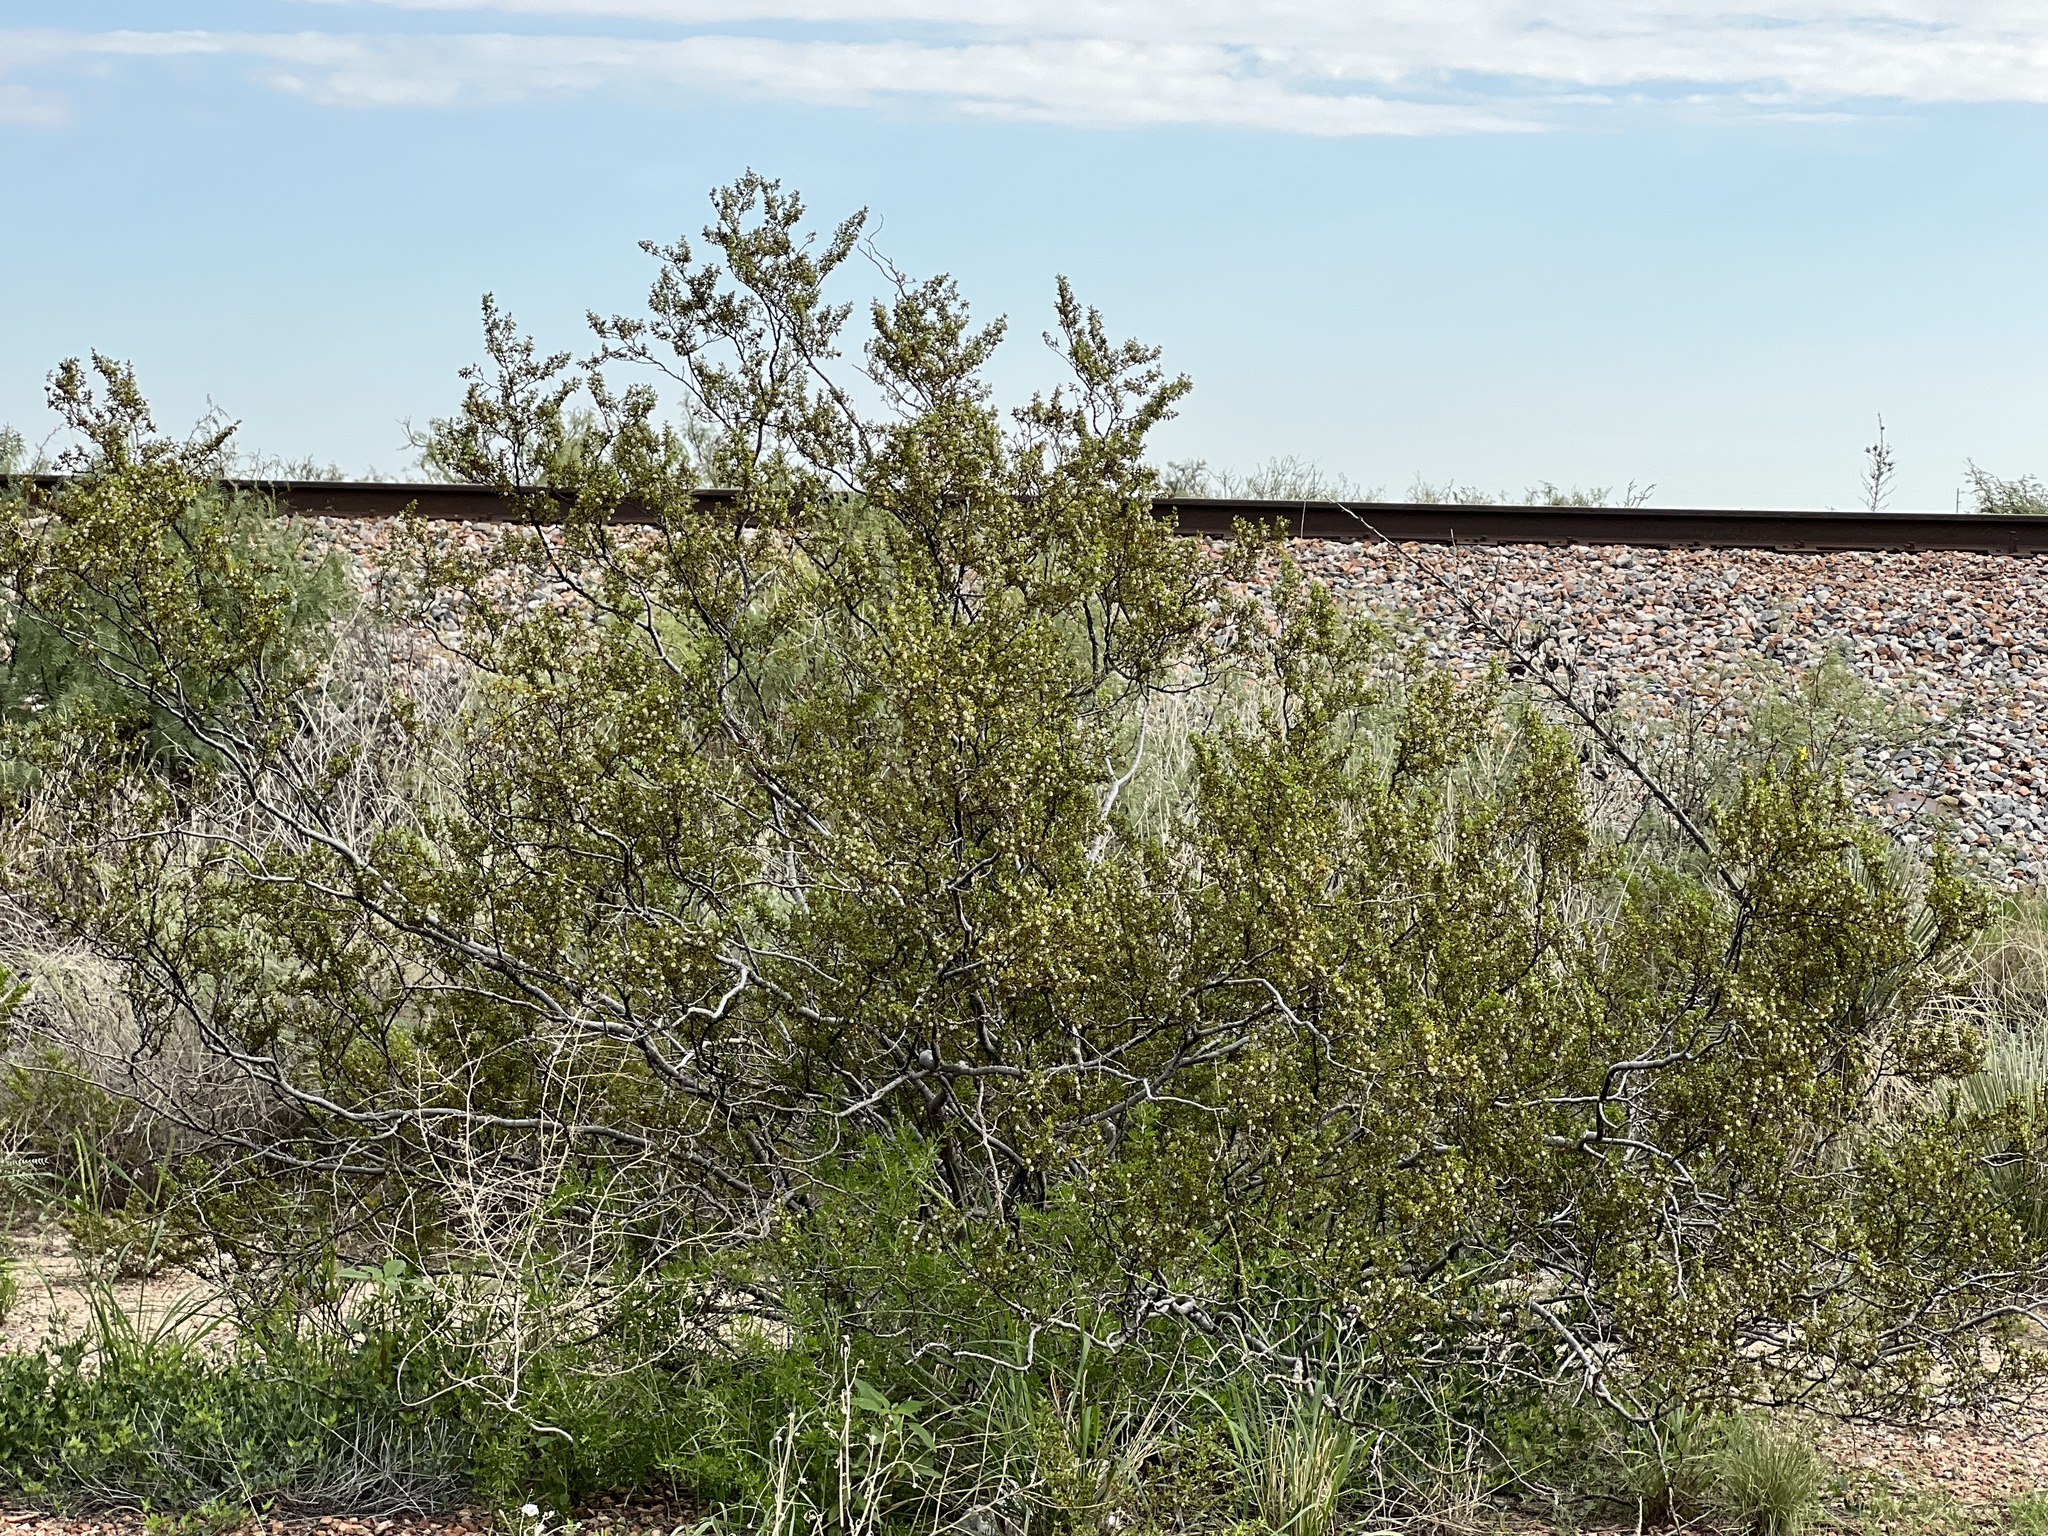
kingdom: Plantae
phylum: Tracheophyta
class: Magnoliopsida
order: Zygophyllales
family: Zygophyllaceae
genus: Larrea
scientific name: Larrea tridentata
